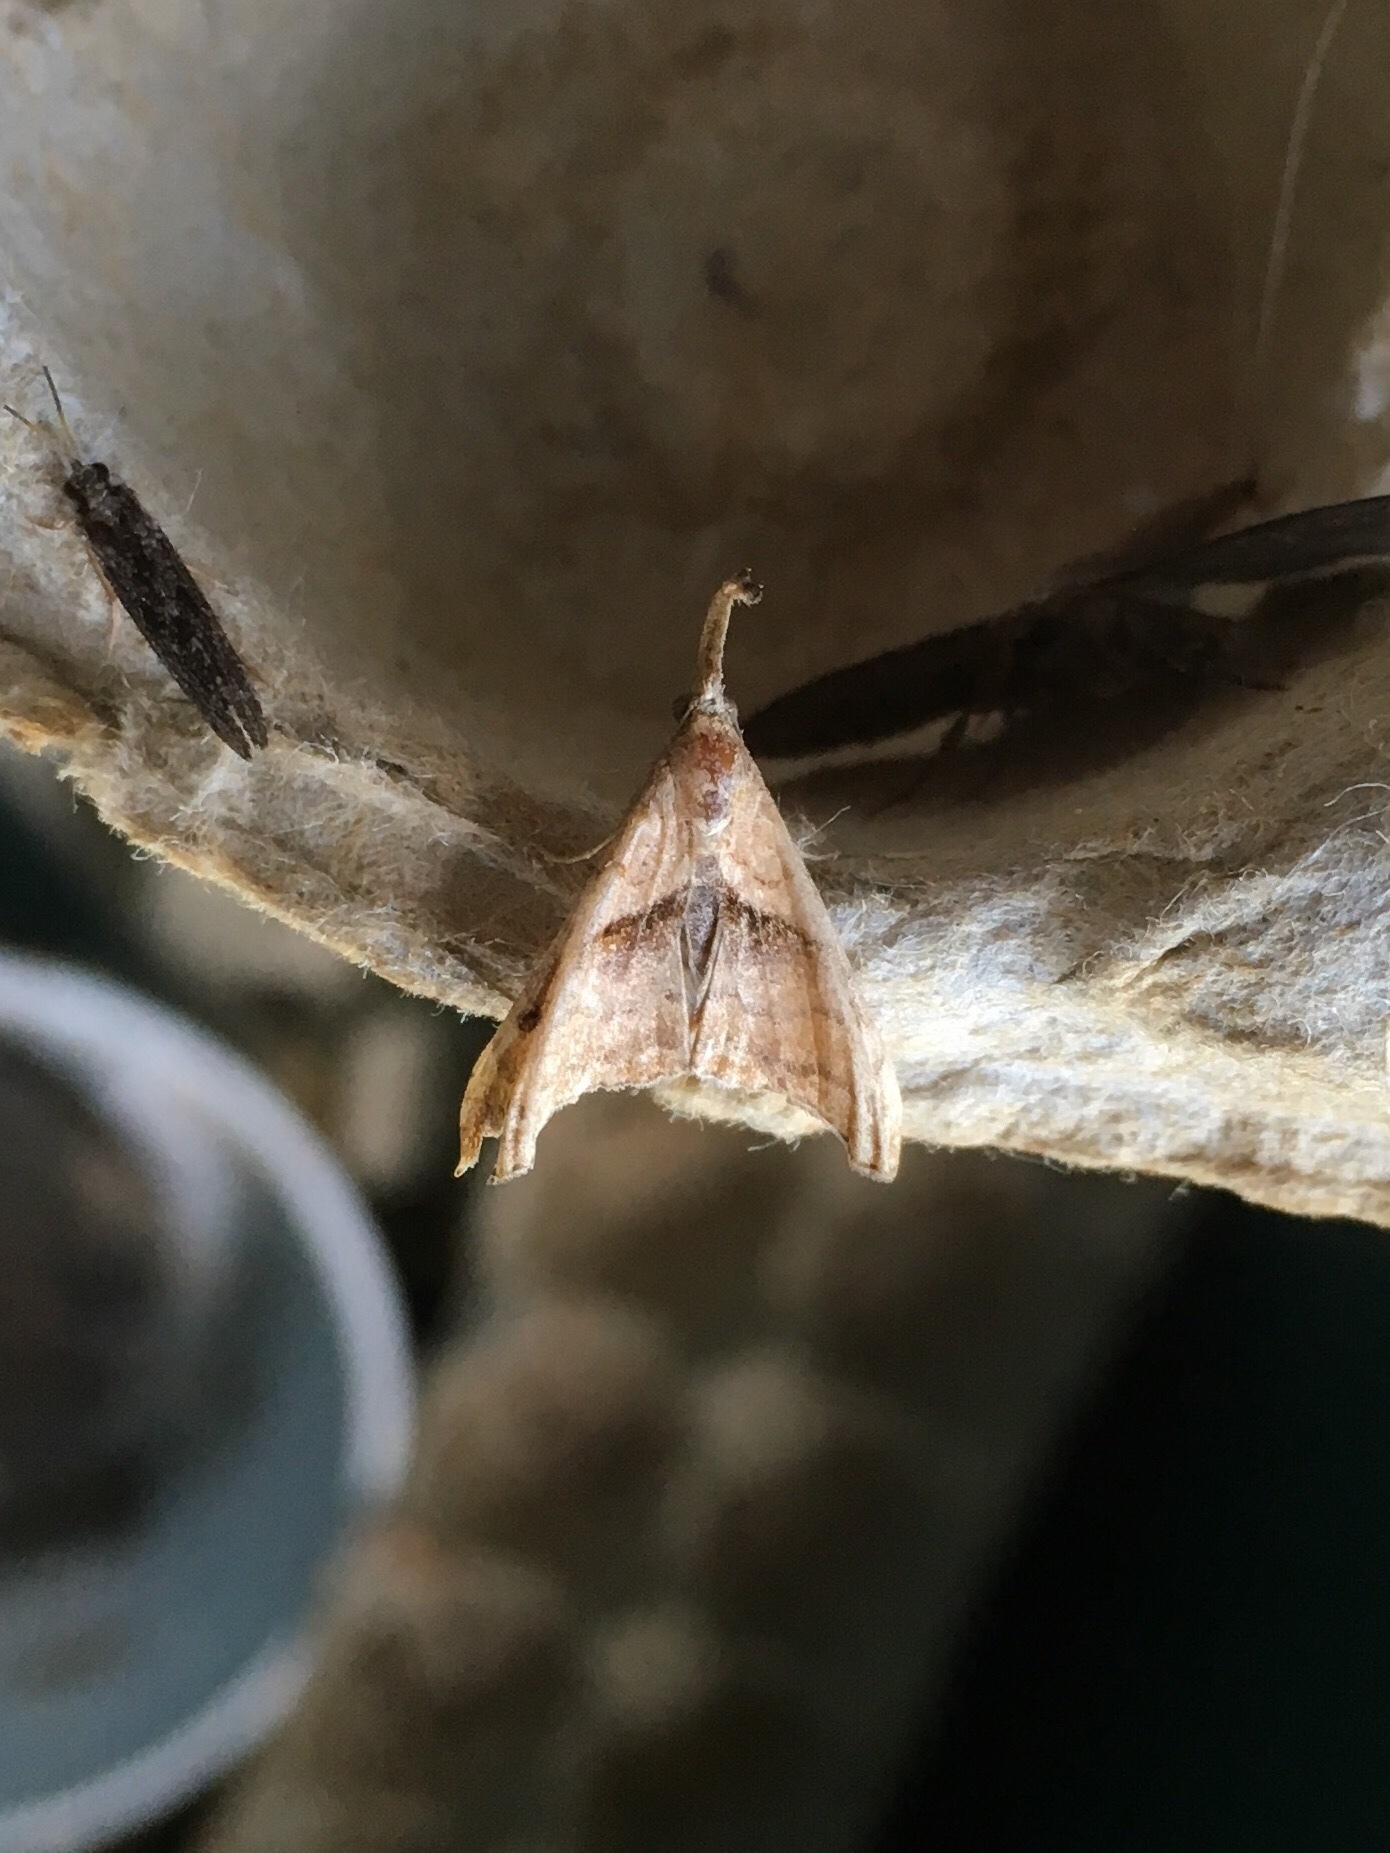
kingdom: Animalia
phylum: Arthropoda
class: Insecta
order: Lepidoptera
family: Erebidae
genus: Palthis
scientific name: Palthis angulalis
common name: Dark-spotted palthis moth
